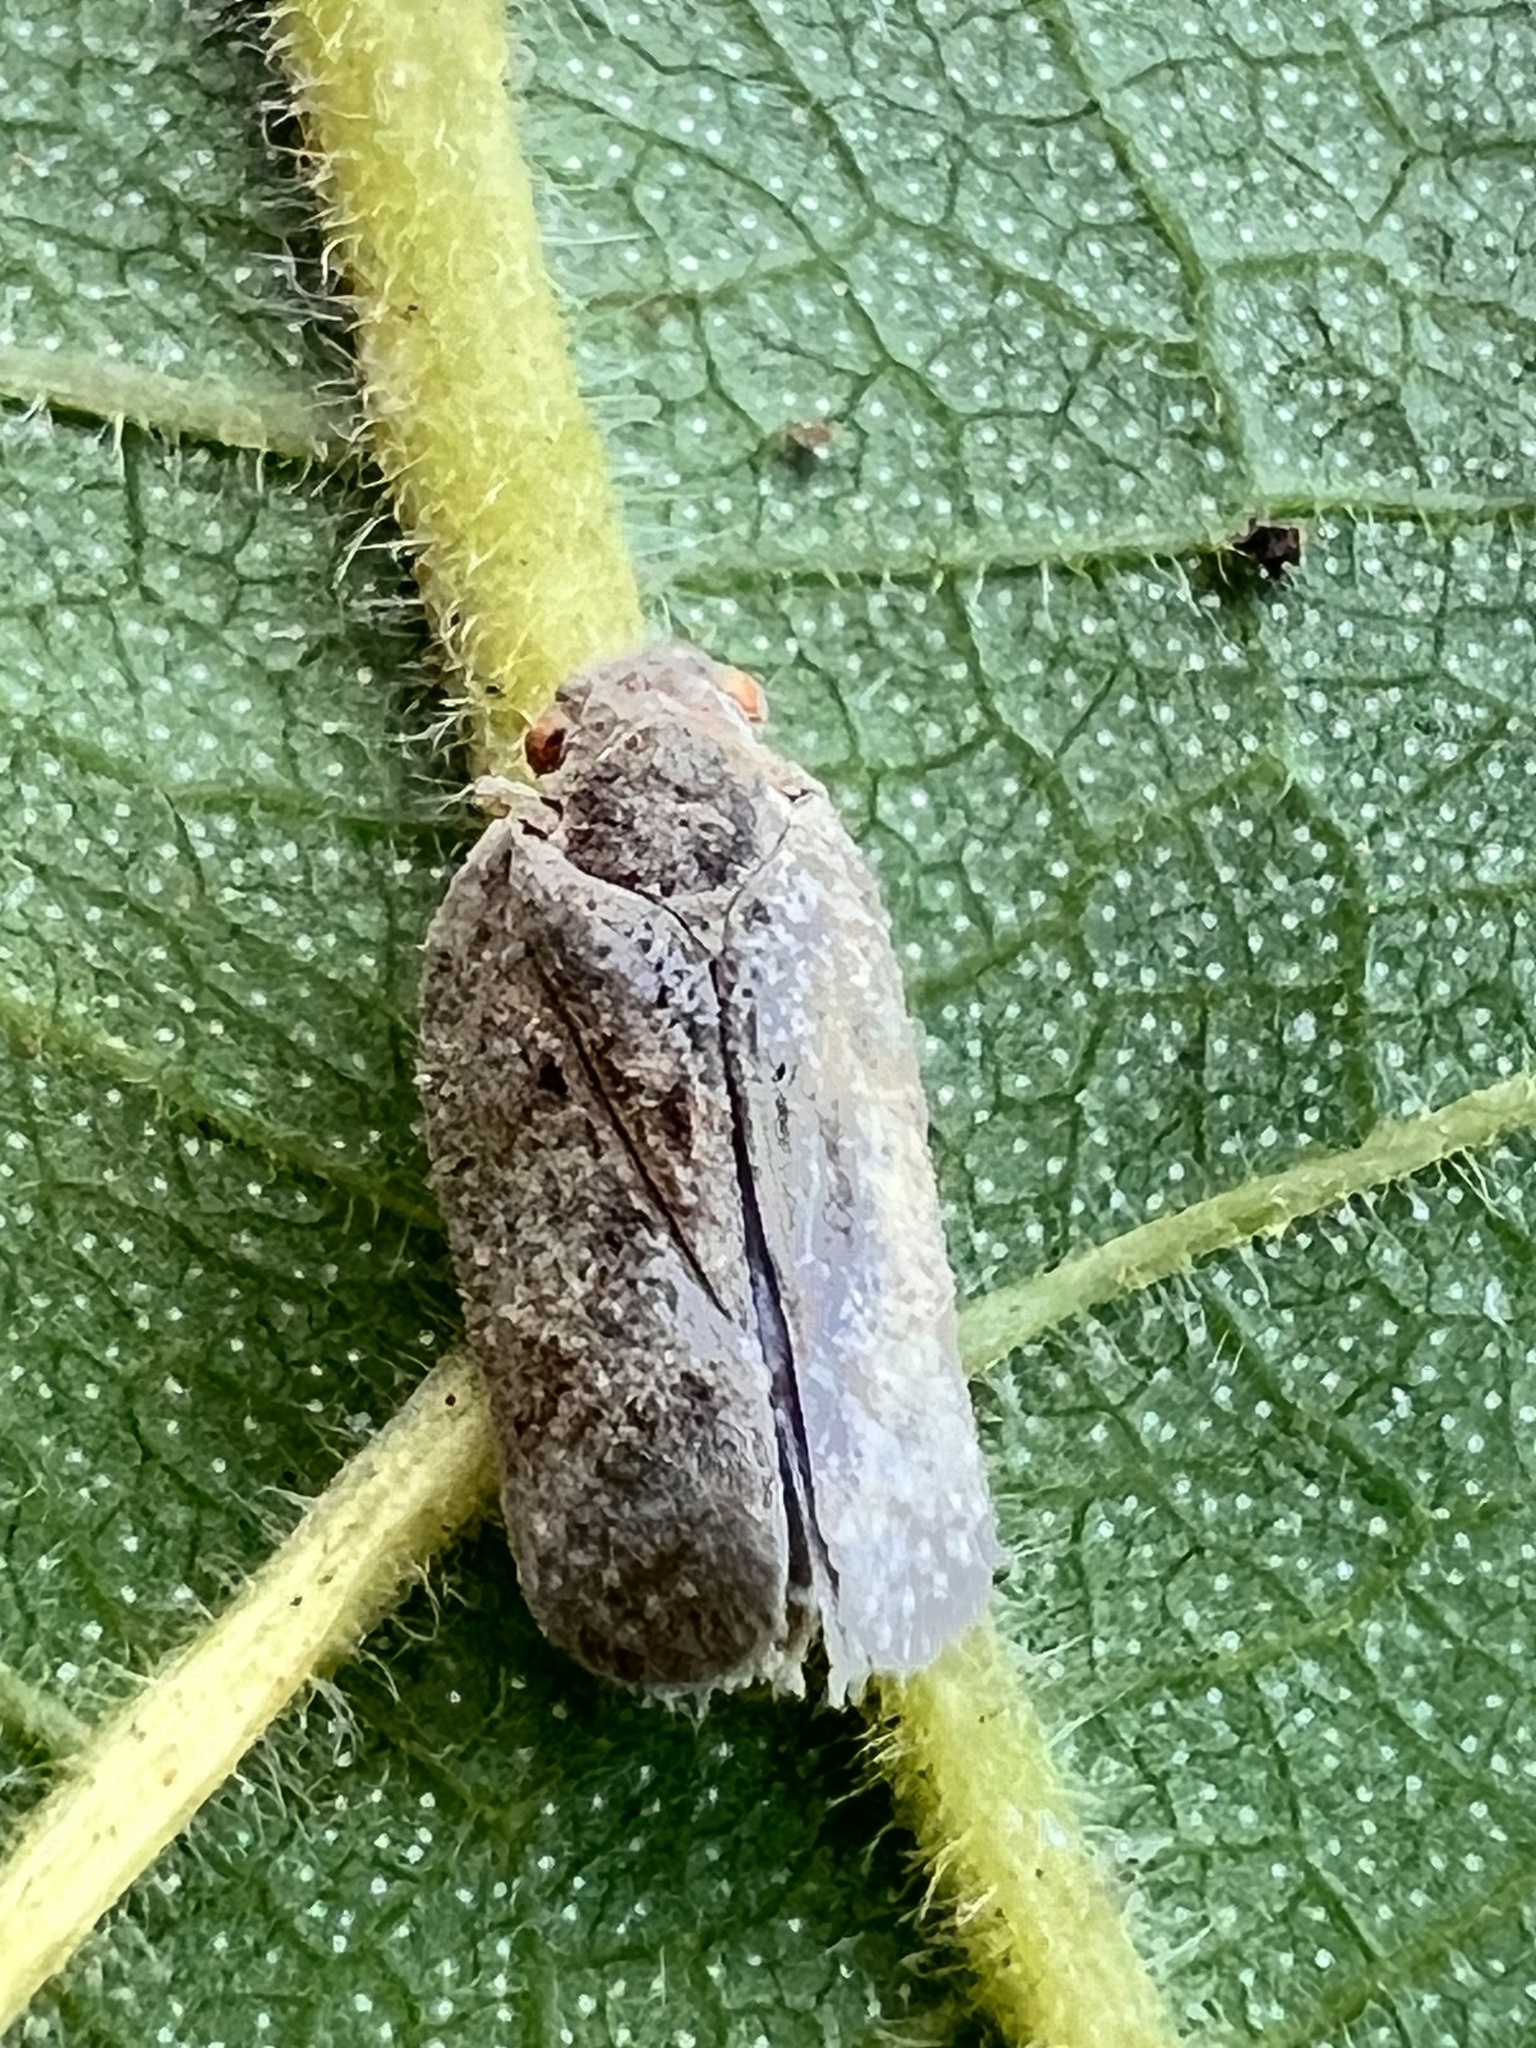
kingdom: Animalia
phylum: Arthropoda
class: Insecta
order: Hemiptera
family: Flatidae
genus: Melormenis
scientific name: Melormenis basalis
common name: Puerto rican planthopper
